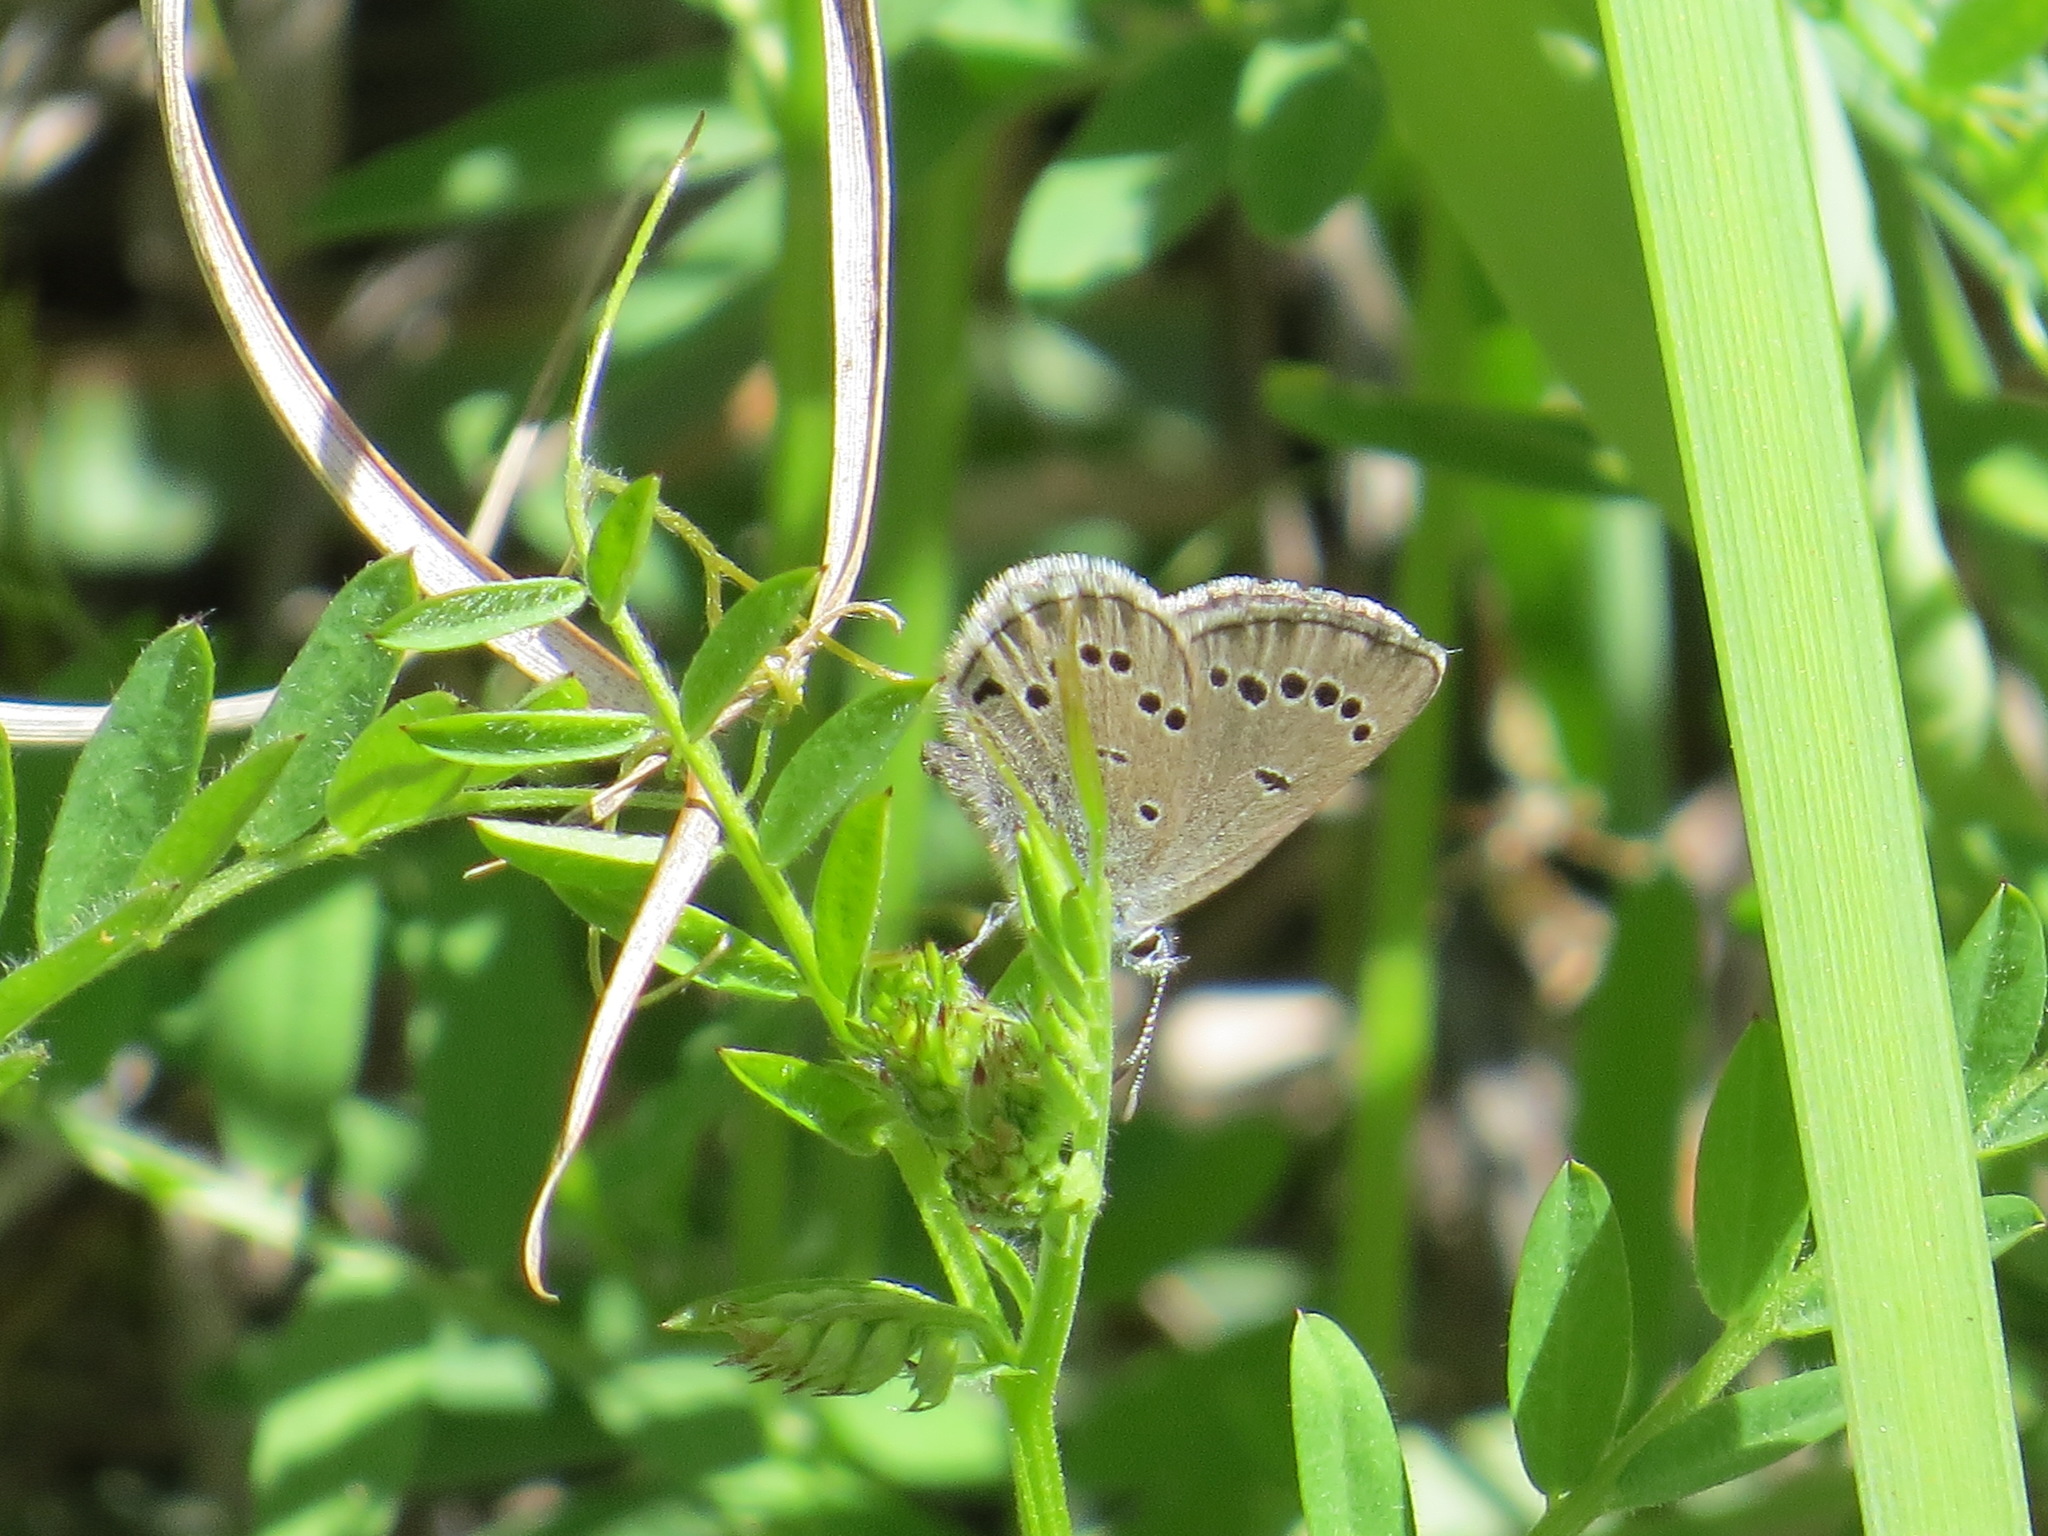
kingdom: Animalia
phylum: Arthropoda
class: Insecta
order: Lepidoptera
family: Lycaenidae
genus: Glaucopsyche
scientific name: Glaucopsyche lygdamus
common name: Silvery blue
